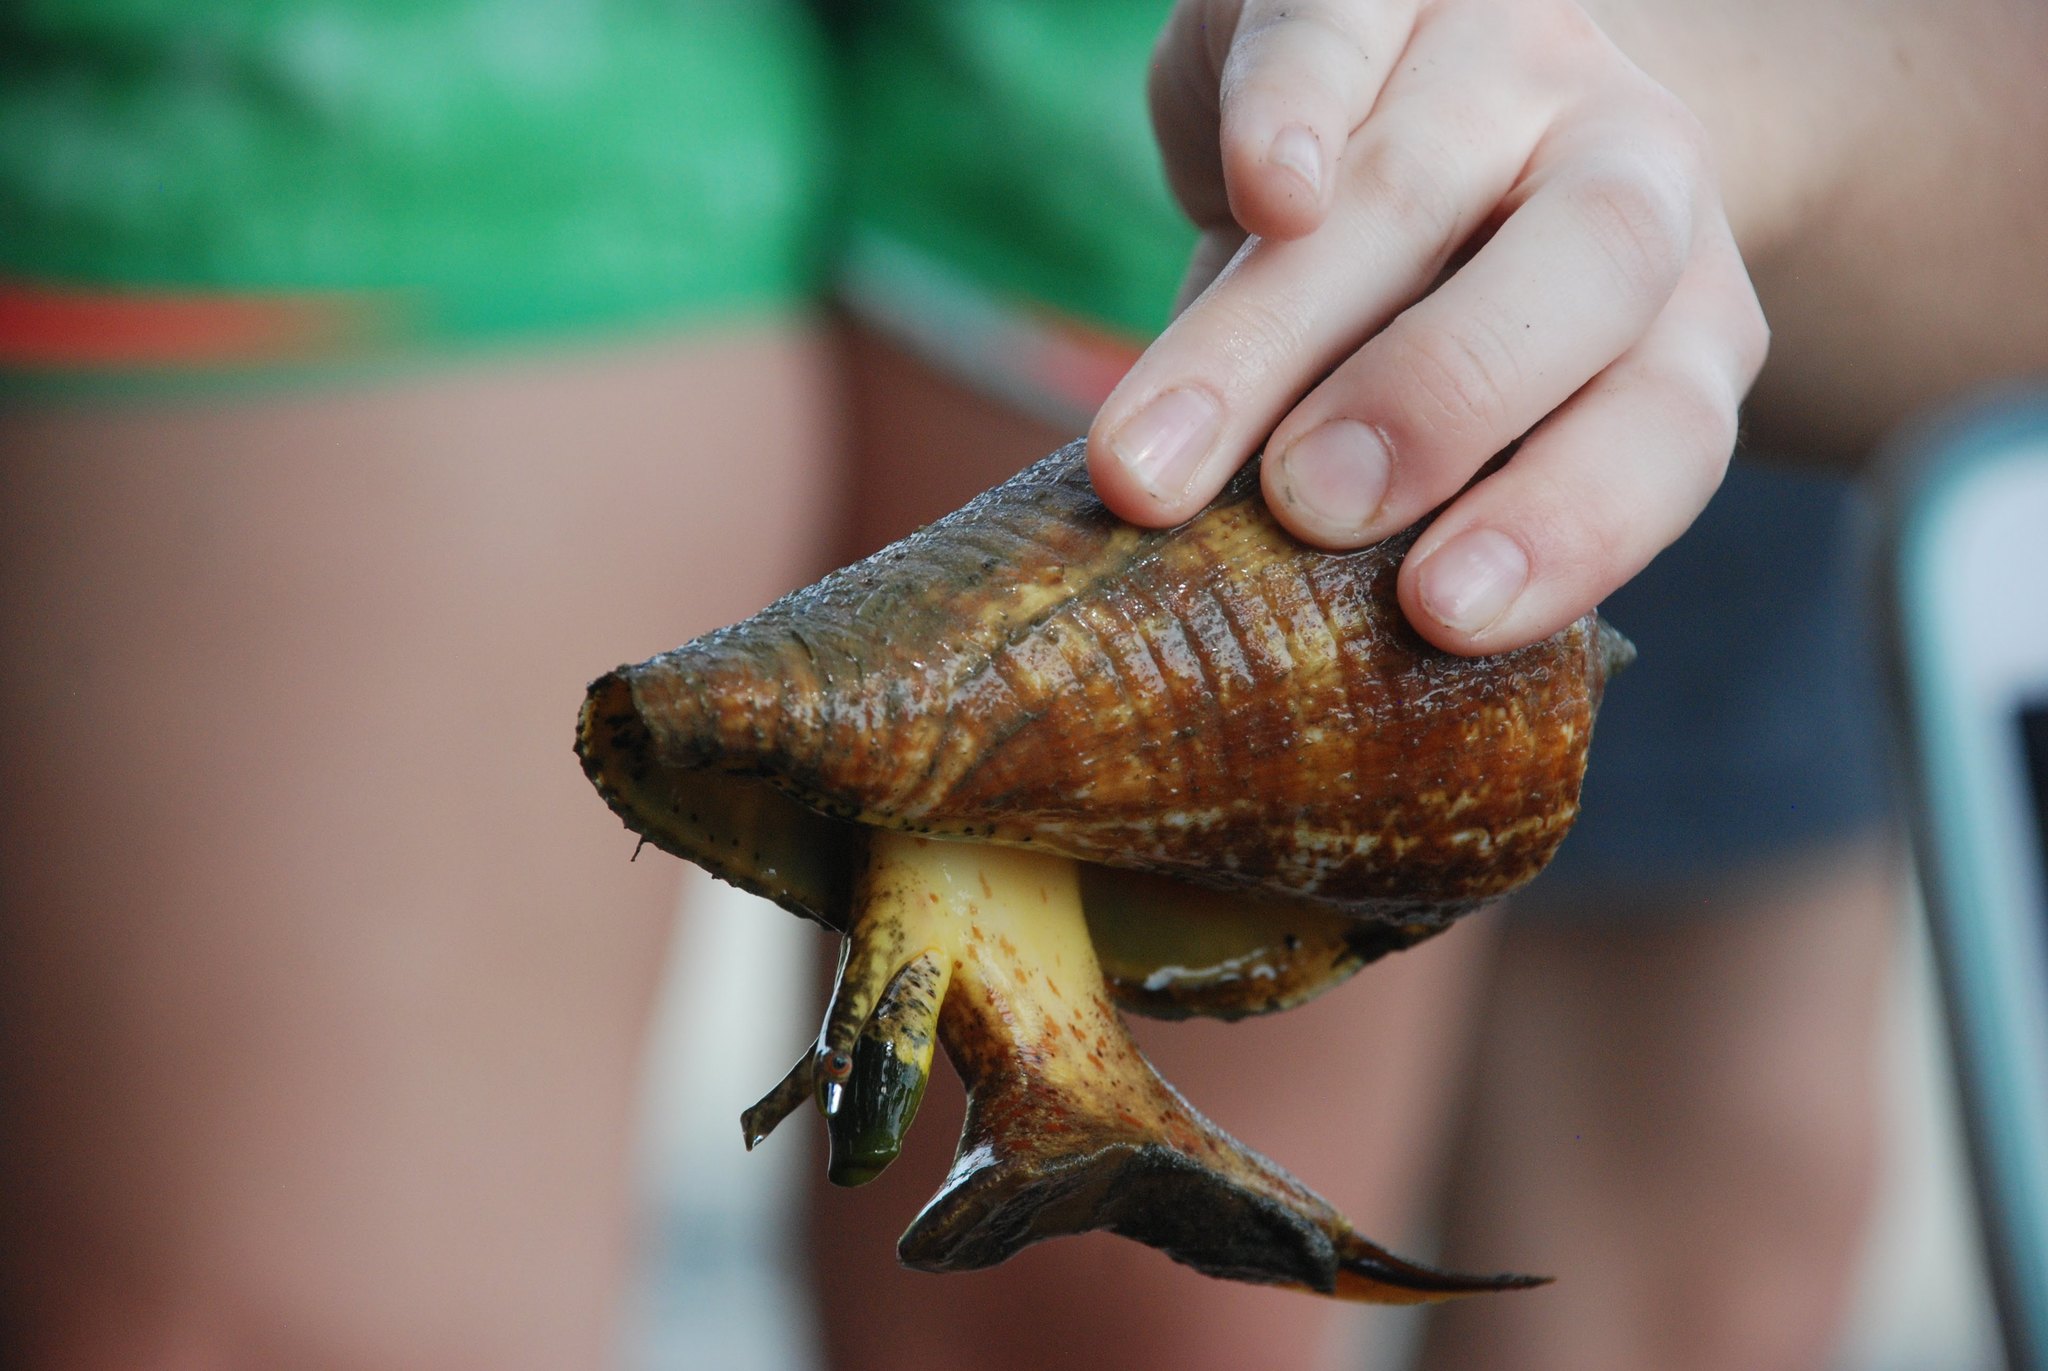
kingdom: Animalia
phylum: Mollusca
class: Gastropoda
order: Littorinimorpha
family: Strombidae
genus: Titanostrombus
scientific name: Titanostrombus galeatus
